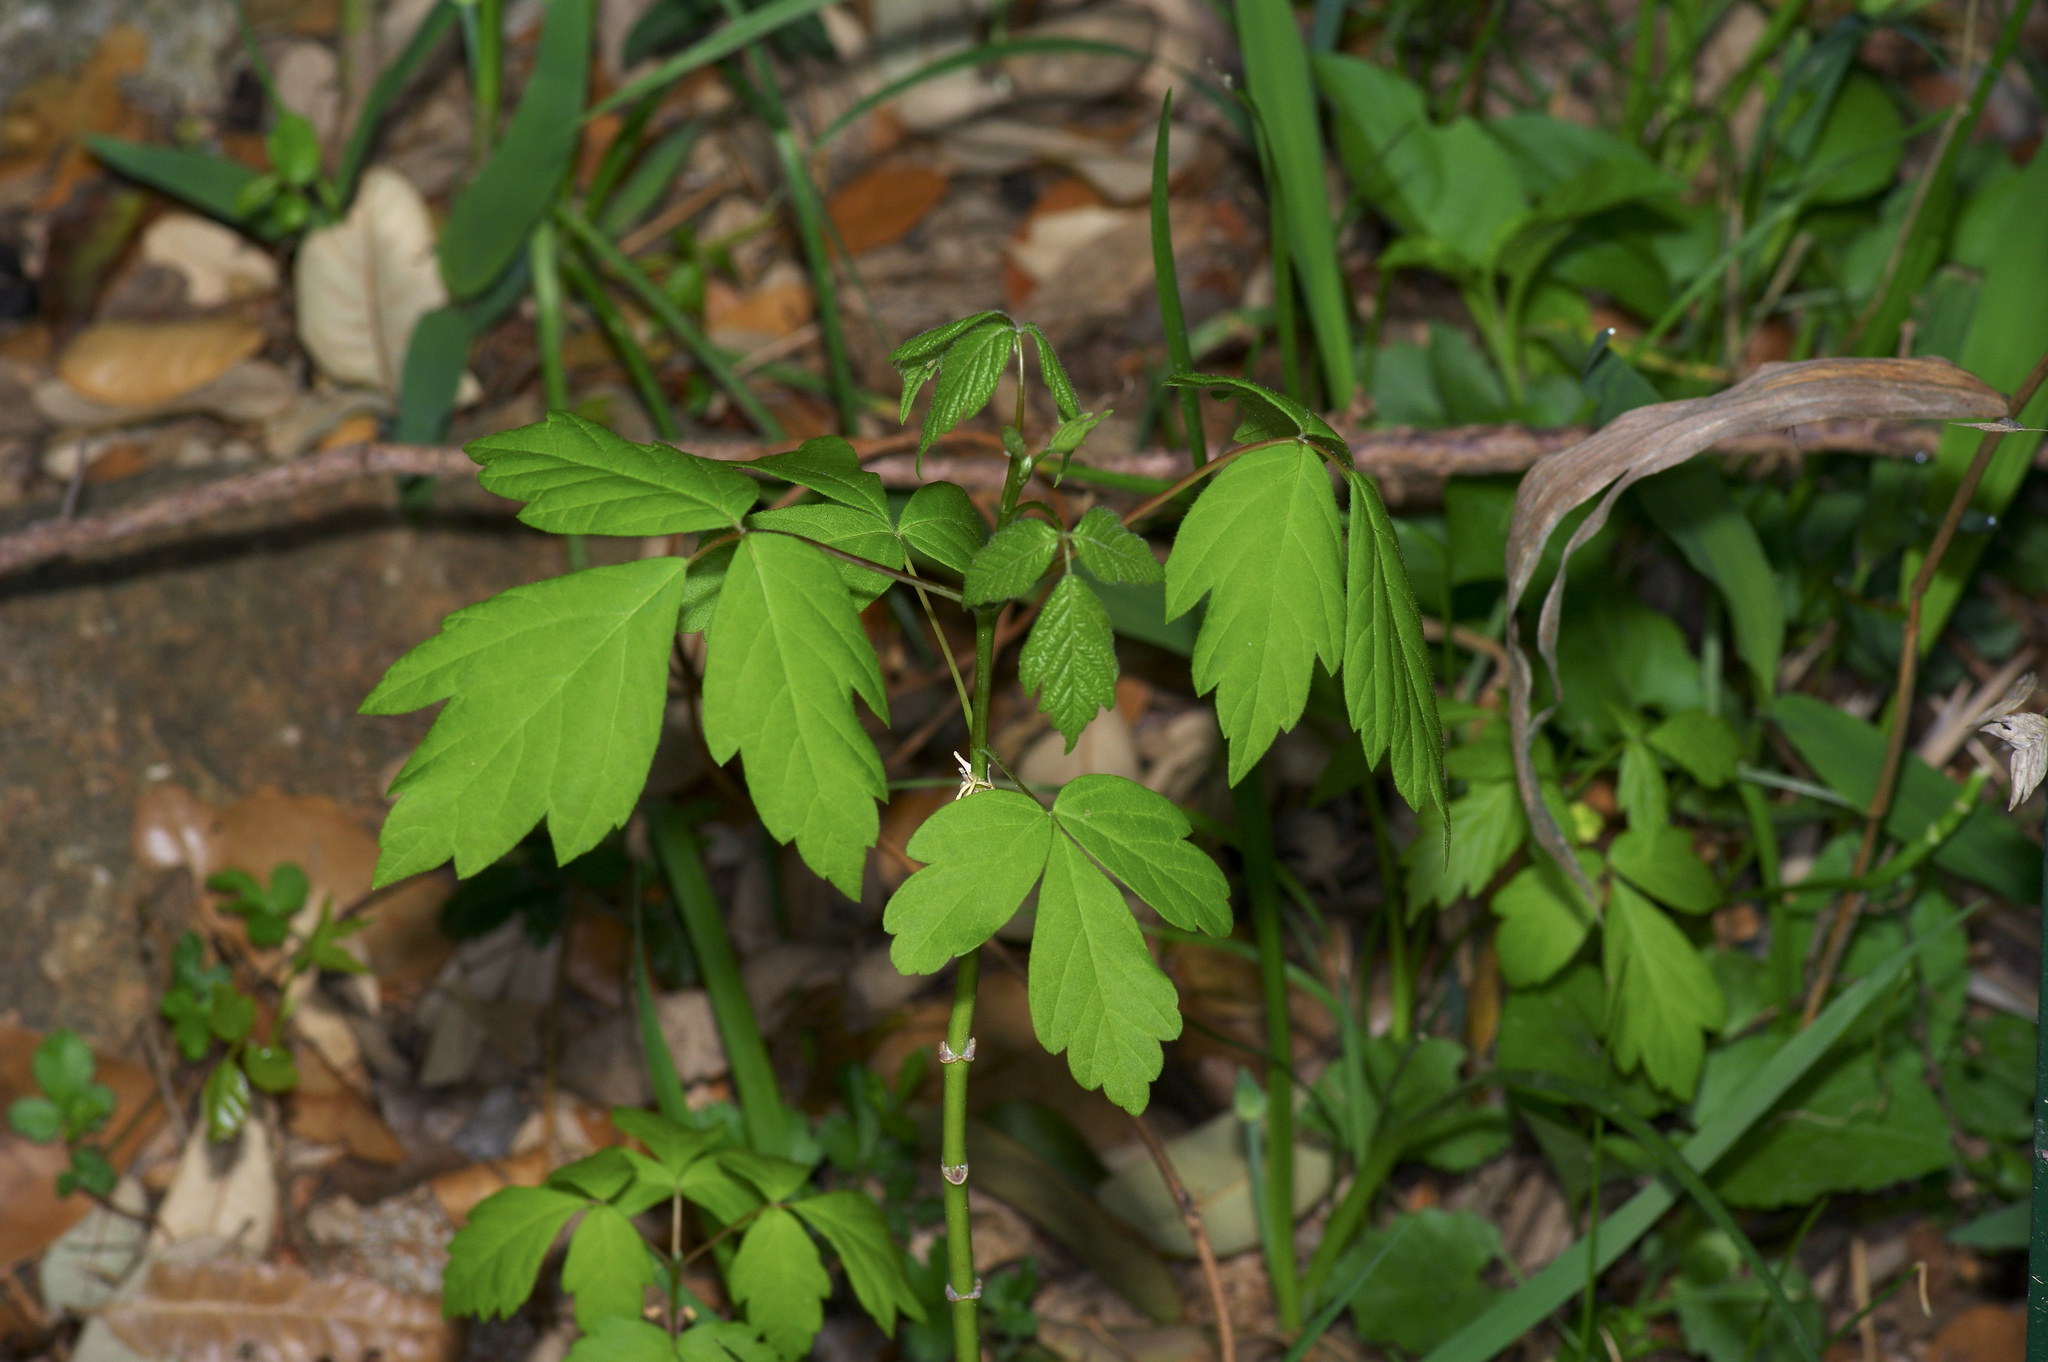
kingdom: Plantae
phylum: Tracheophyta
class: Magnoliopsida
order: Sapindales
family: Sapindaceae
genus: Acer
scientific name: Acer negundo
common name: Ashleaf maple
